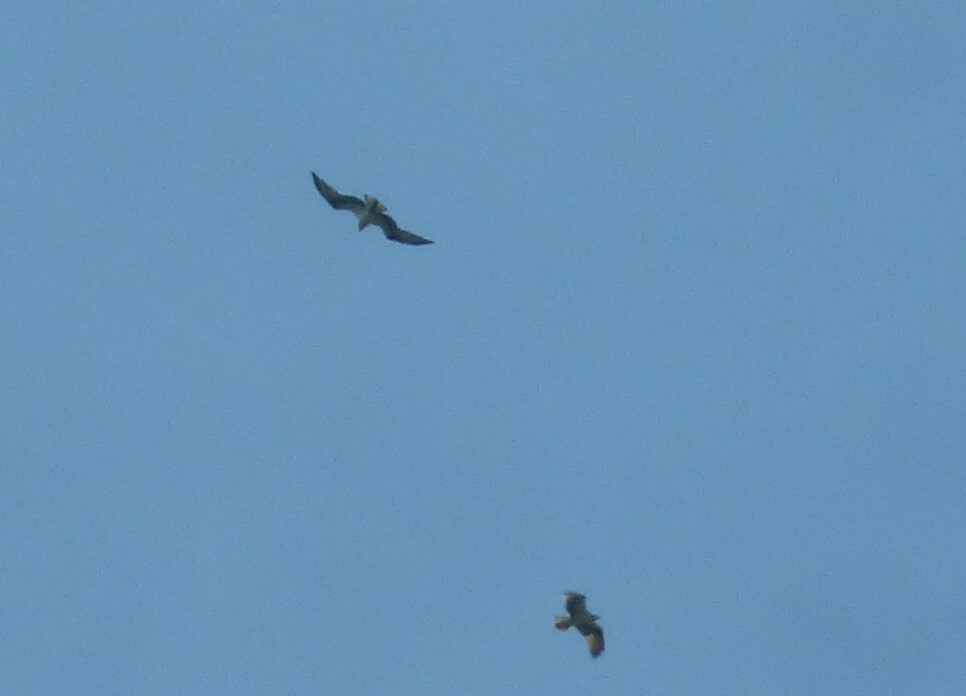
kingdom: Animalia
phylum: Chordata
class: Aves
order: Accipitriformes
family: Pandionidae
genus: Pandion
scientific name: Pandion haliaetus
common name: Osprey
